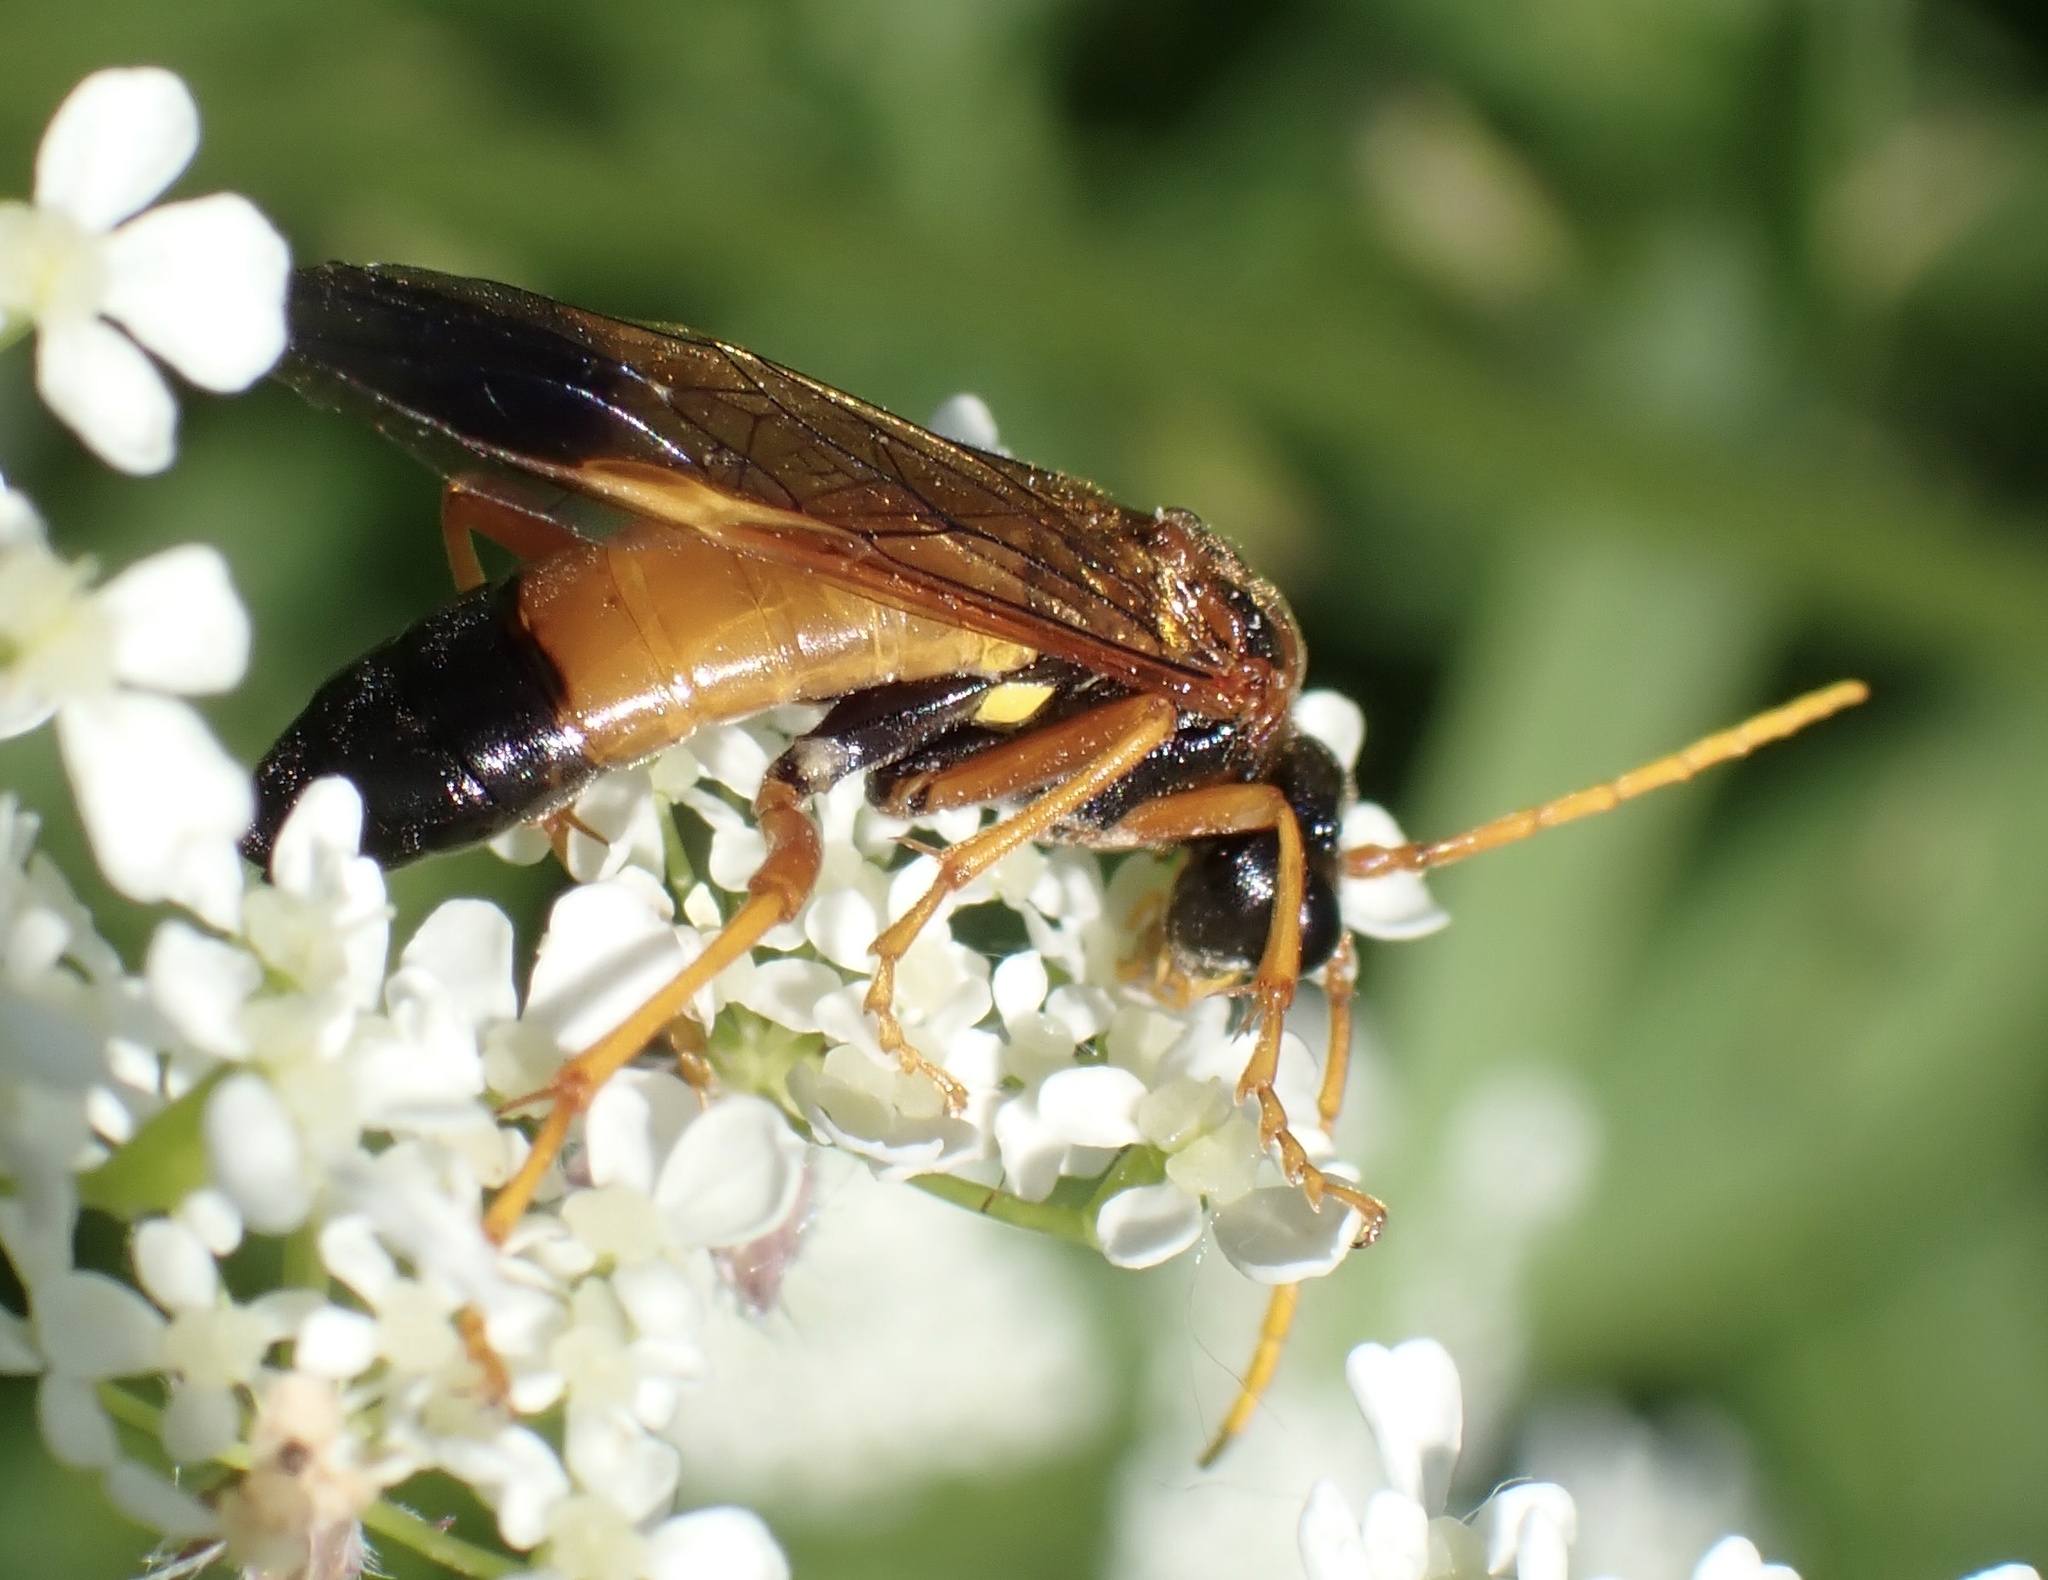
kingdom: Animalia
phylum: Arthropoda
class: Insecta
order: Hymenoptera
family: Tenthredinidae
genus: Tenthredo
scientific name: Tenthredo campestris
